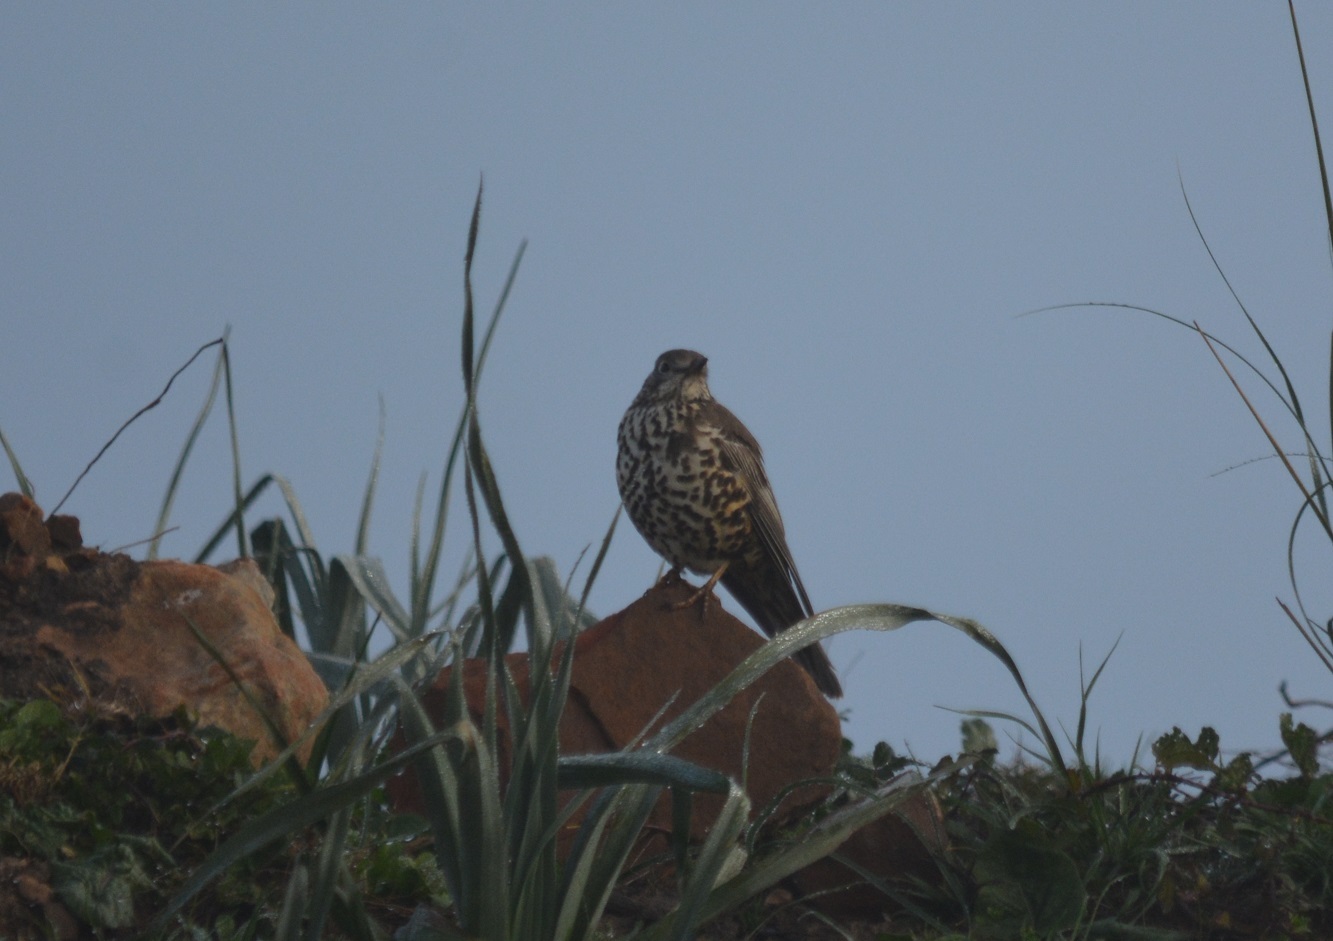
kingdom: Animalia
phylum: Chordata
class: Aves
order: Passeriformes
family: Turdidae
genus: Turdus
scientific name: Turdus viscivorus
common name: Mistle thrush
